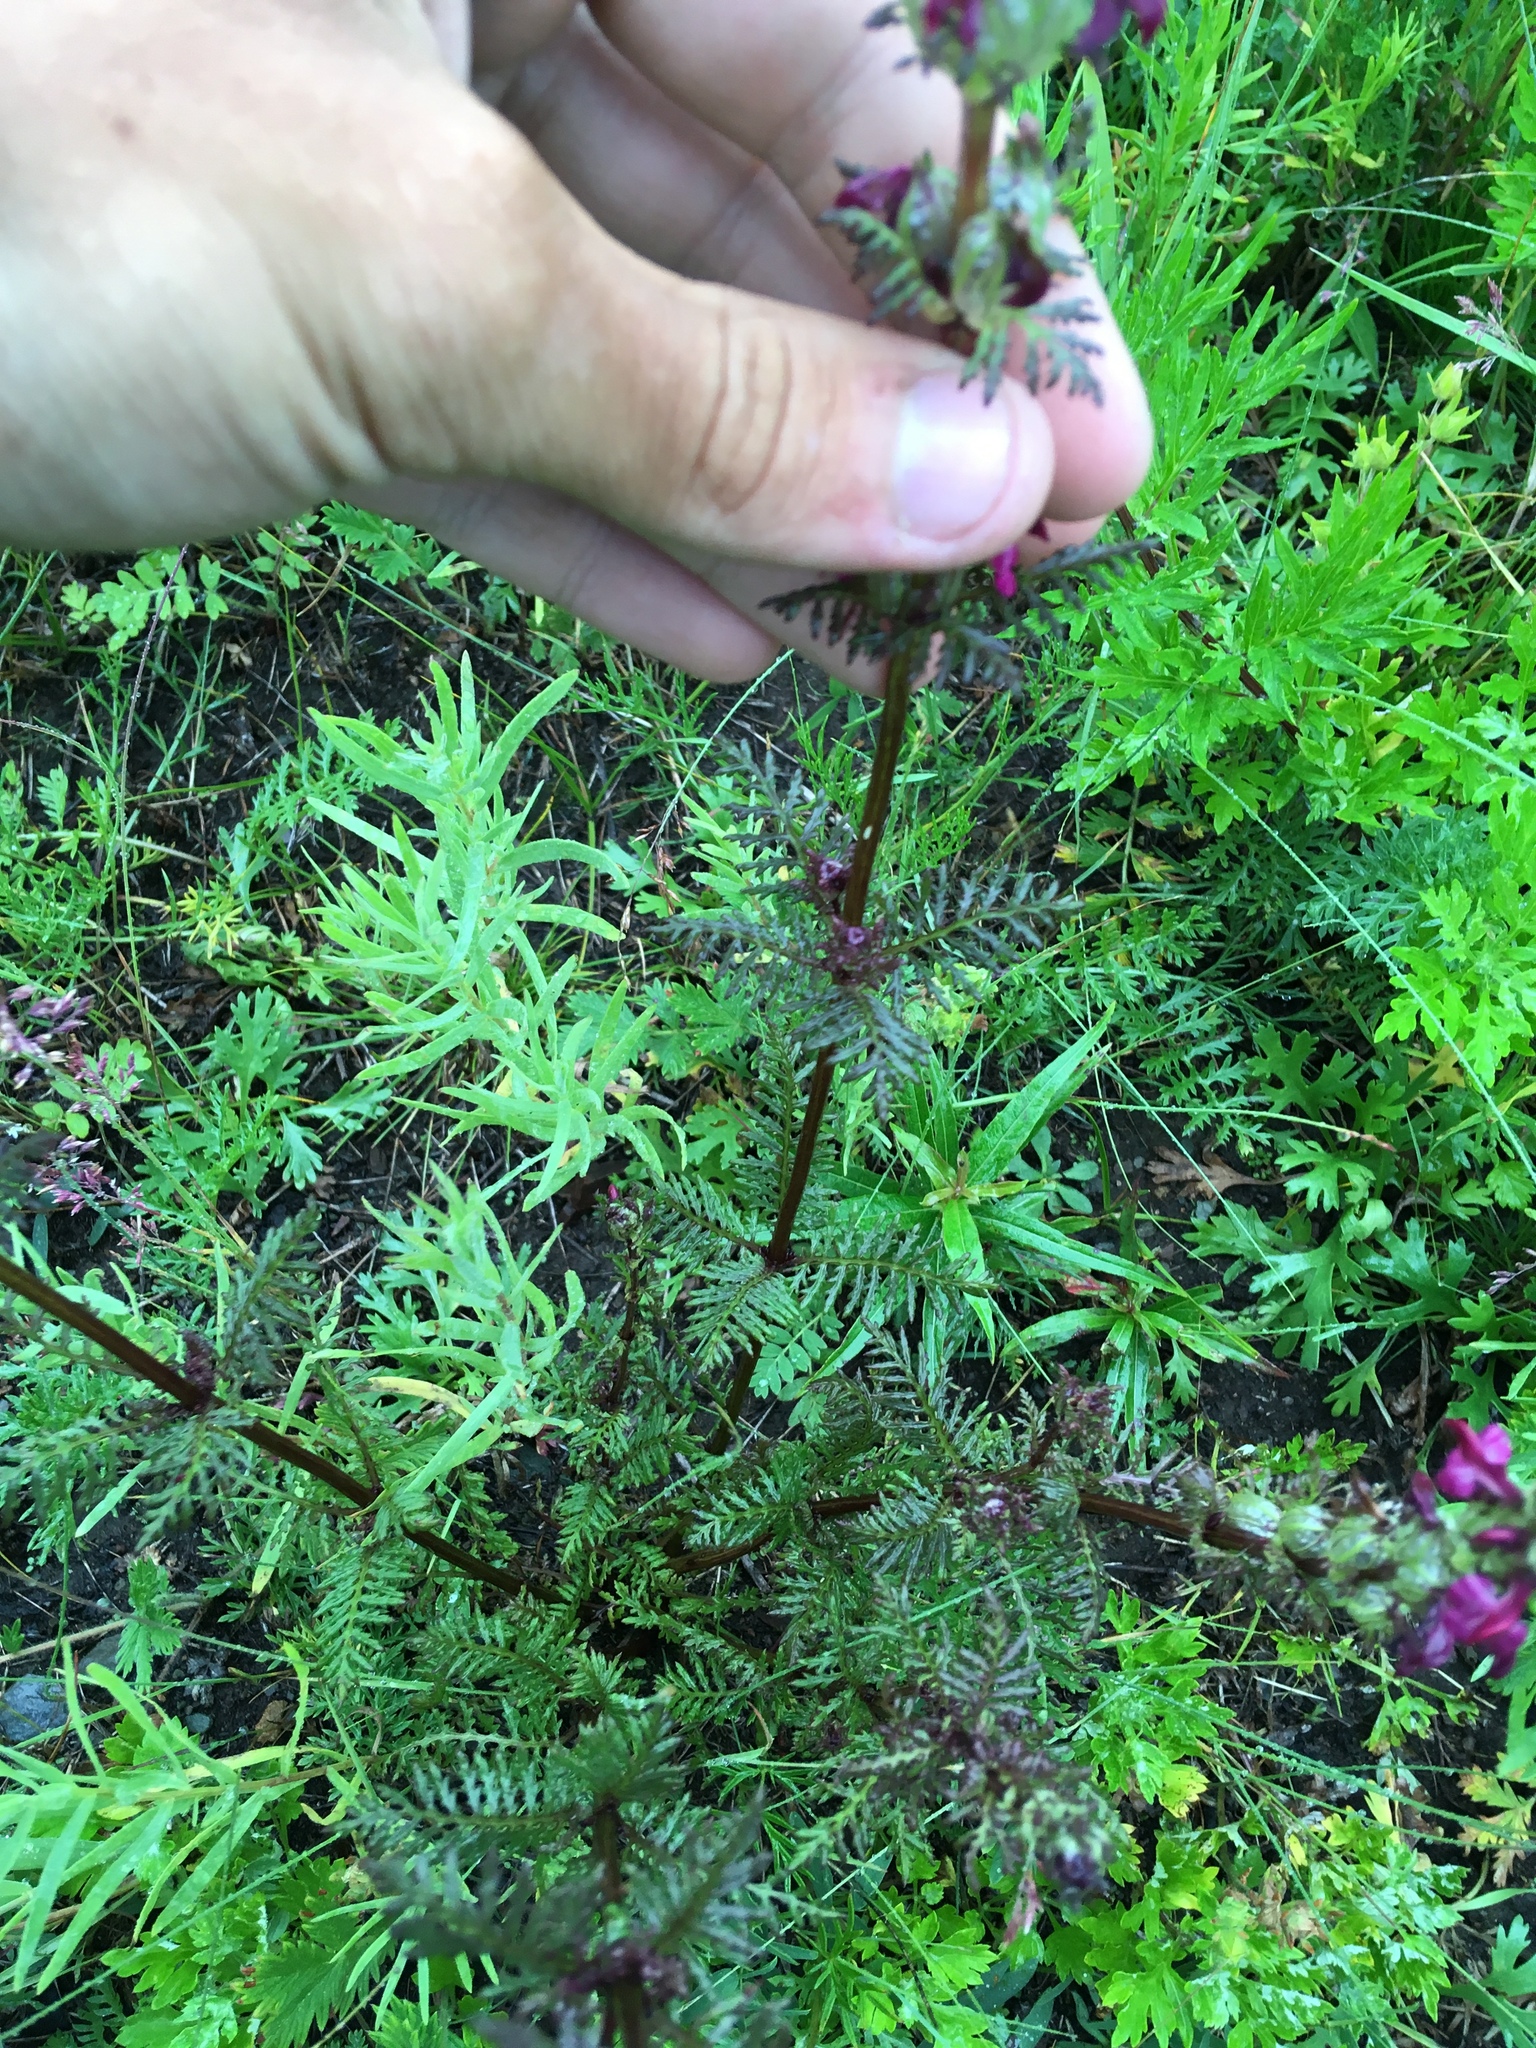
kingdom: Plantae
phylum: Tracheophyta
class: Magnoliopsida
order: Lamiales
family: Orobanchaceae
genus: Pedicularis
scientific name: Pedicularis verticillata
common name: Whorled lousewort
